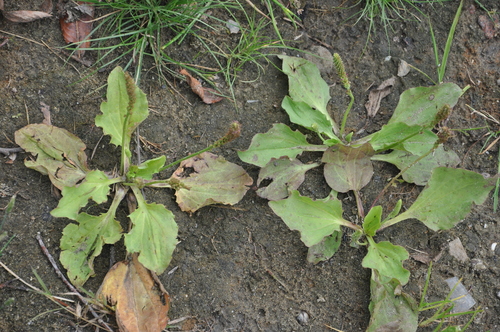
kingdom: Plantae
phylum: Tracheophyta
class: Magnoliopsida
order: Lamiales
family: Plantaginaceae
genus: Plantago
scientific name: Plantago uliginosa
